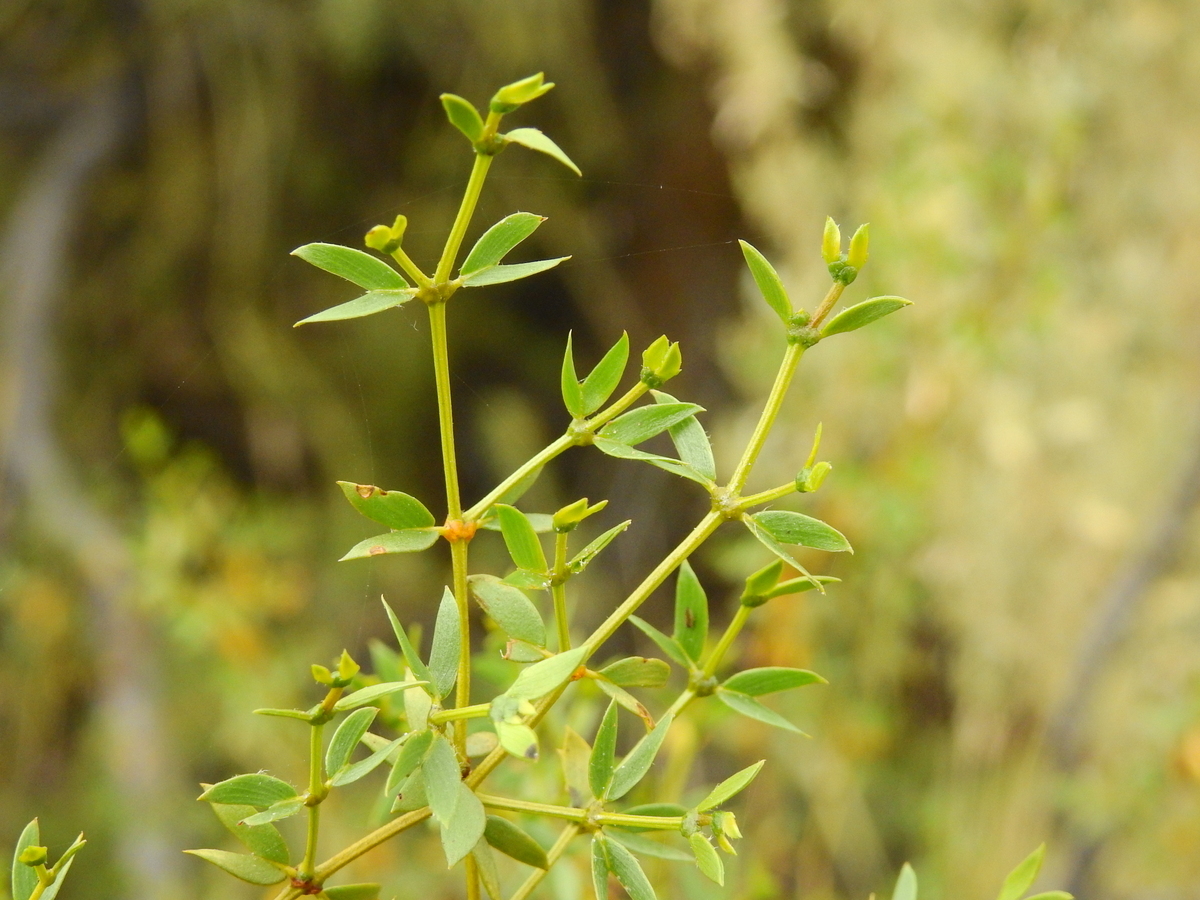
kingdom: Plantae
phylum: Tracheophyta
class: Magnoliopsida
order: Zygophyllales
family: Zygophyllaceae
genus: Larrea
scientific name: Larrea divaricata
